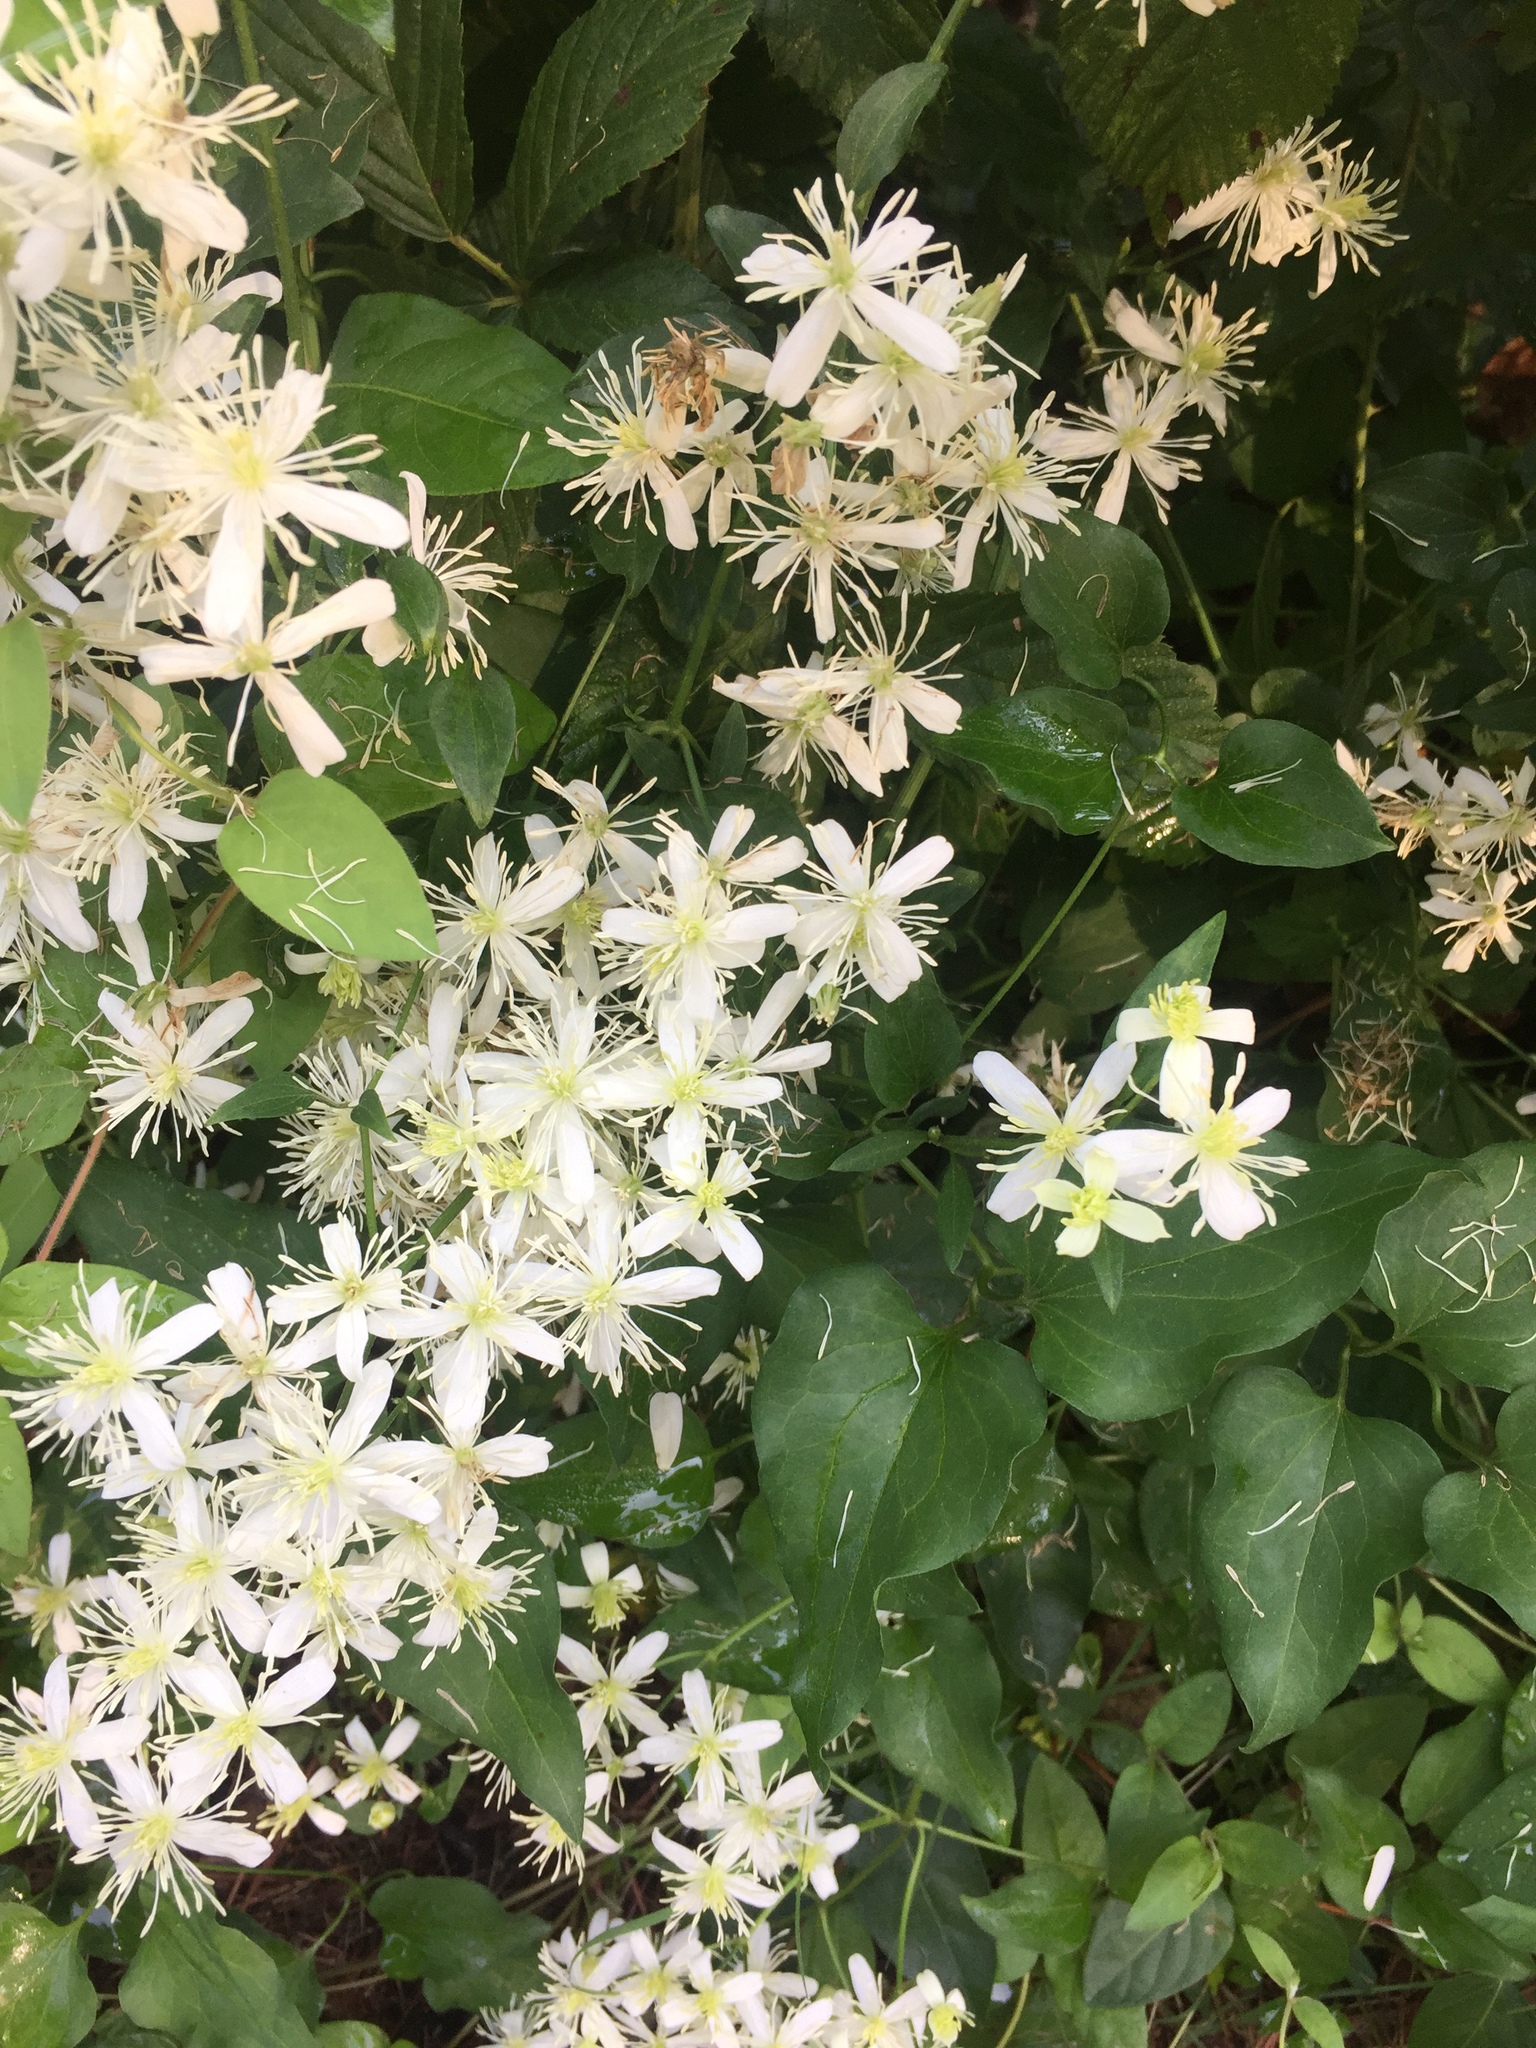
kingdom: Plantae
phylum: Tracheophyta
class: Magnoliopsida
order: Ranunculales
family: Ranunculaceae
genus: Clematis
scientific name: Clematis terniflora
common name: Sweet autumn clematis
